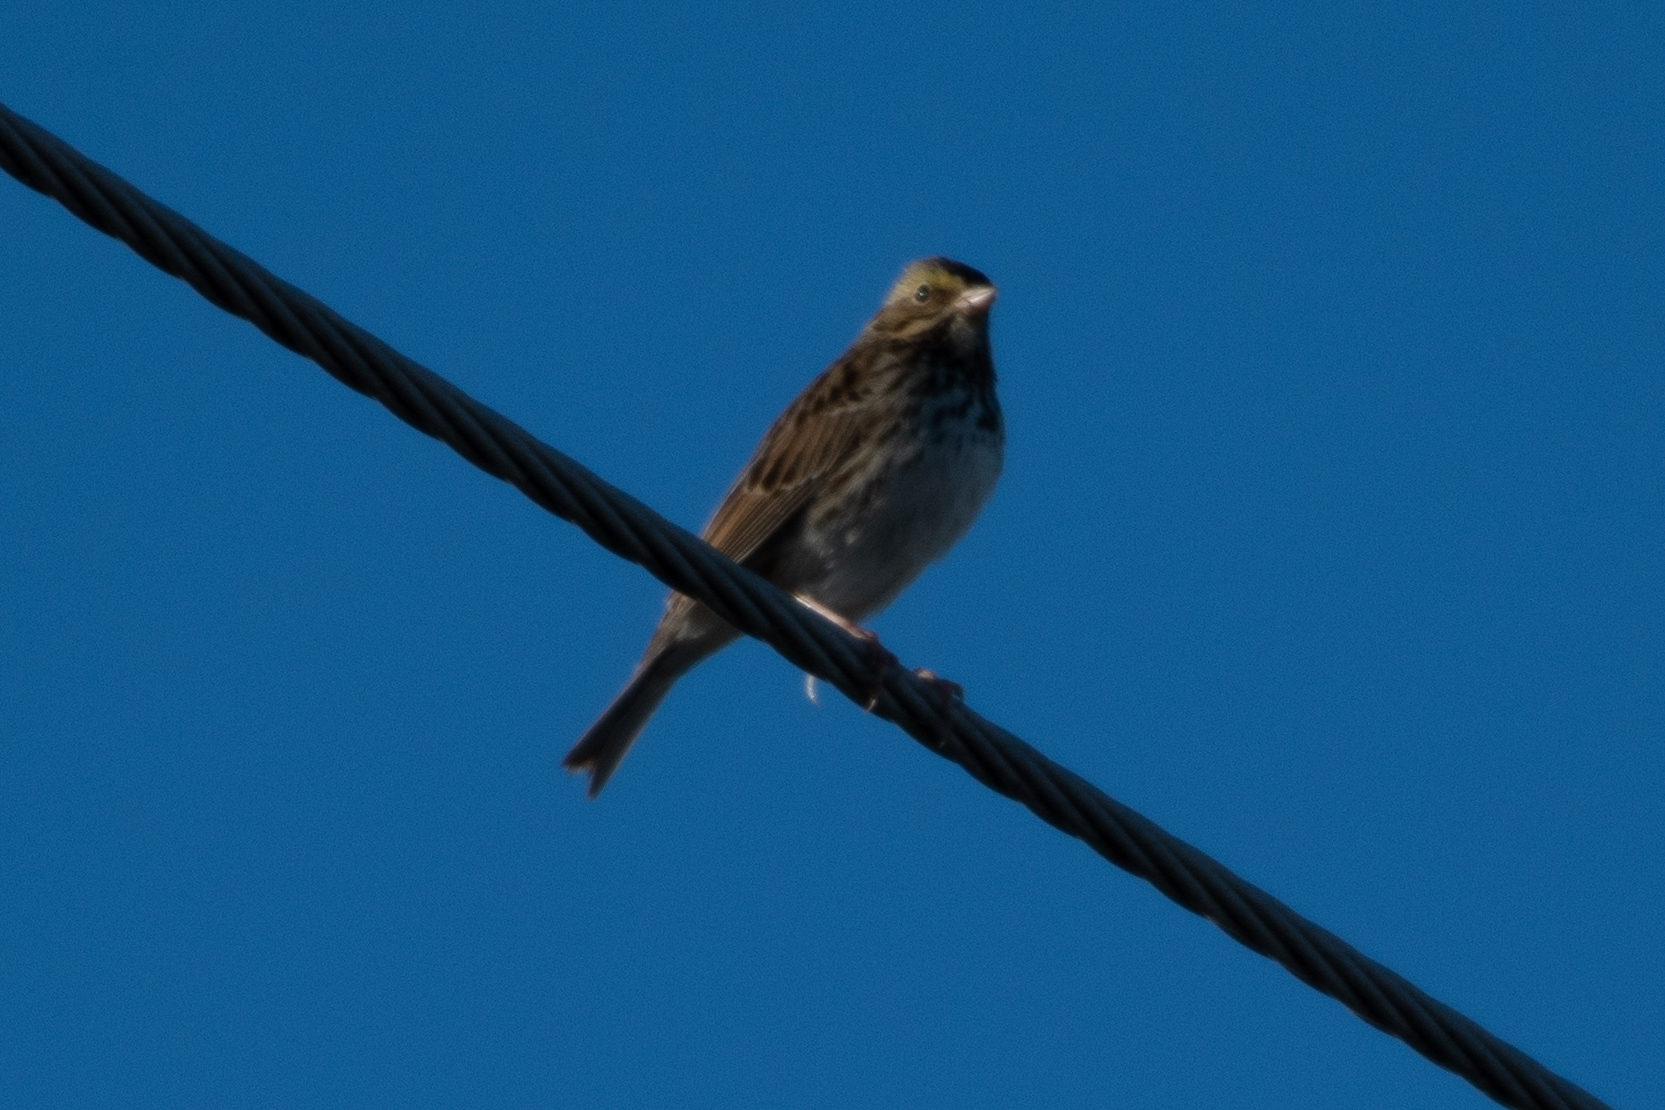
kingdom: Animalia
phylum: Chordata
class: Aves
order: Passeriformes
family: Passerellidae
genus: Passerculus
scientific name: Passerculus sandwichensis
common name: Savannah sparrow
